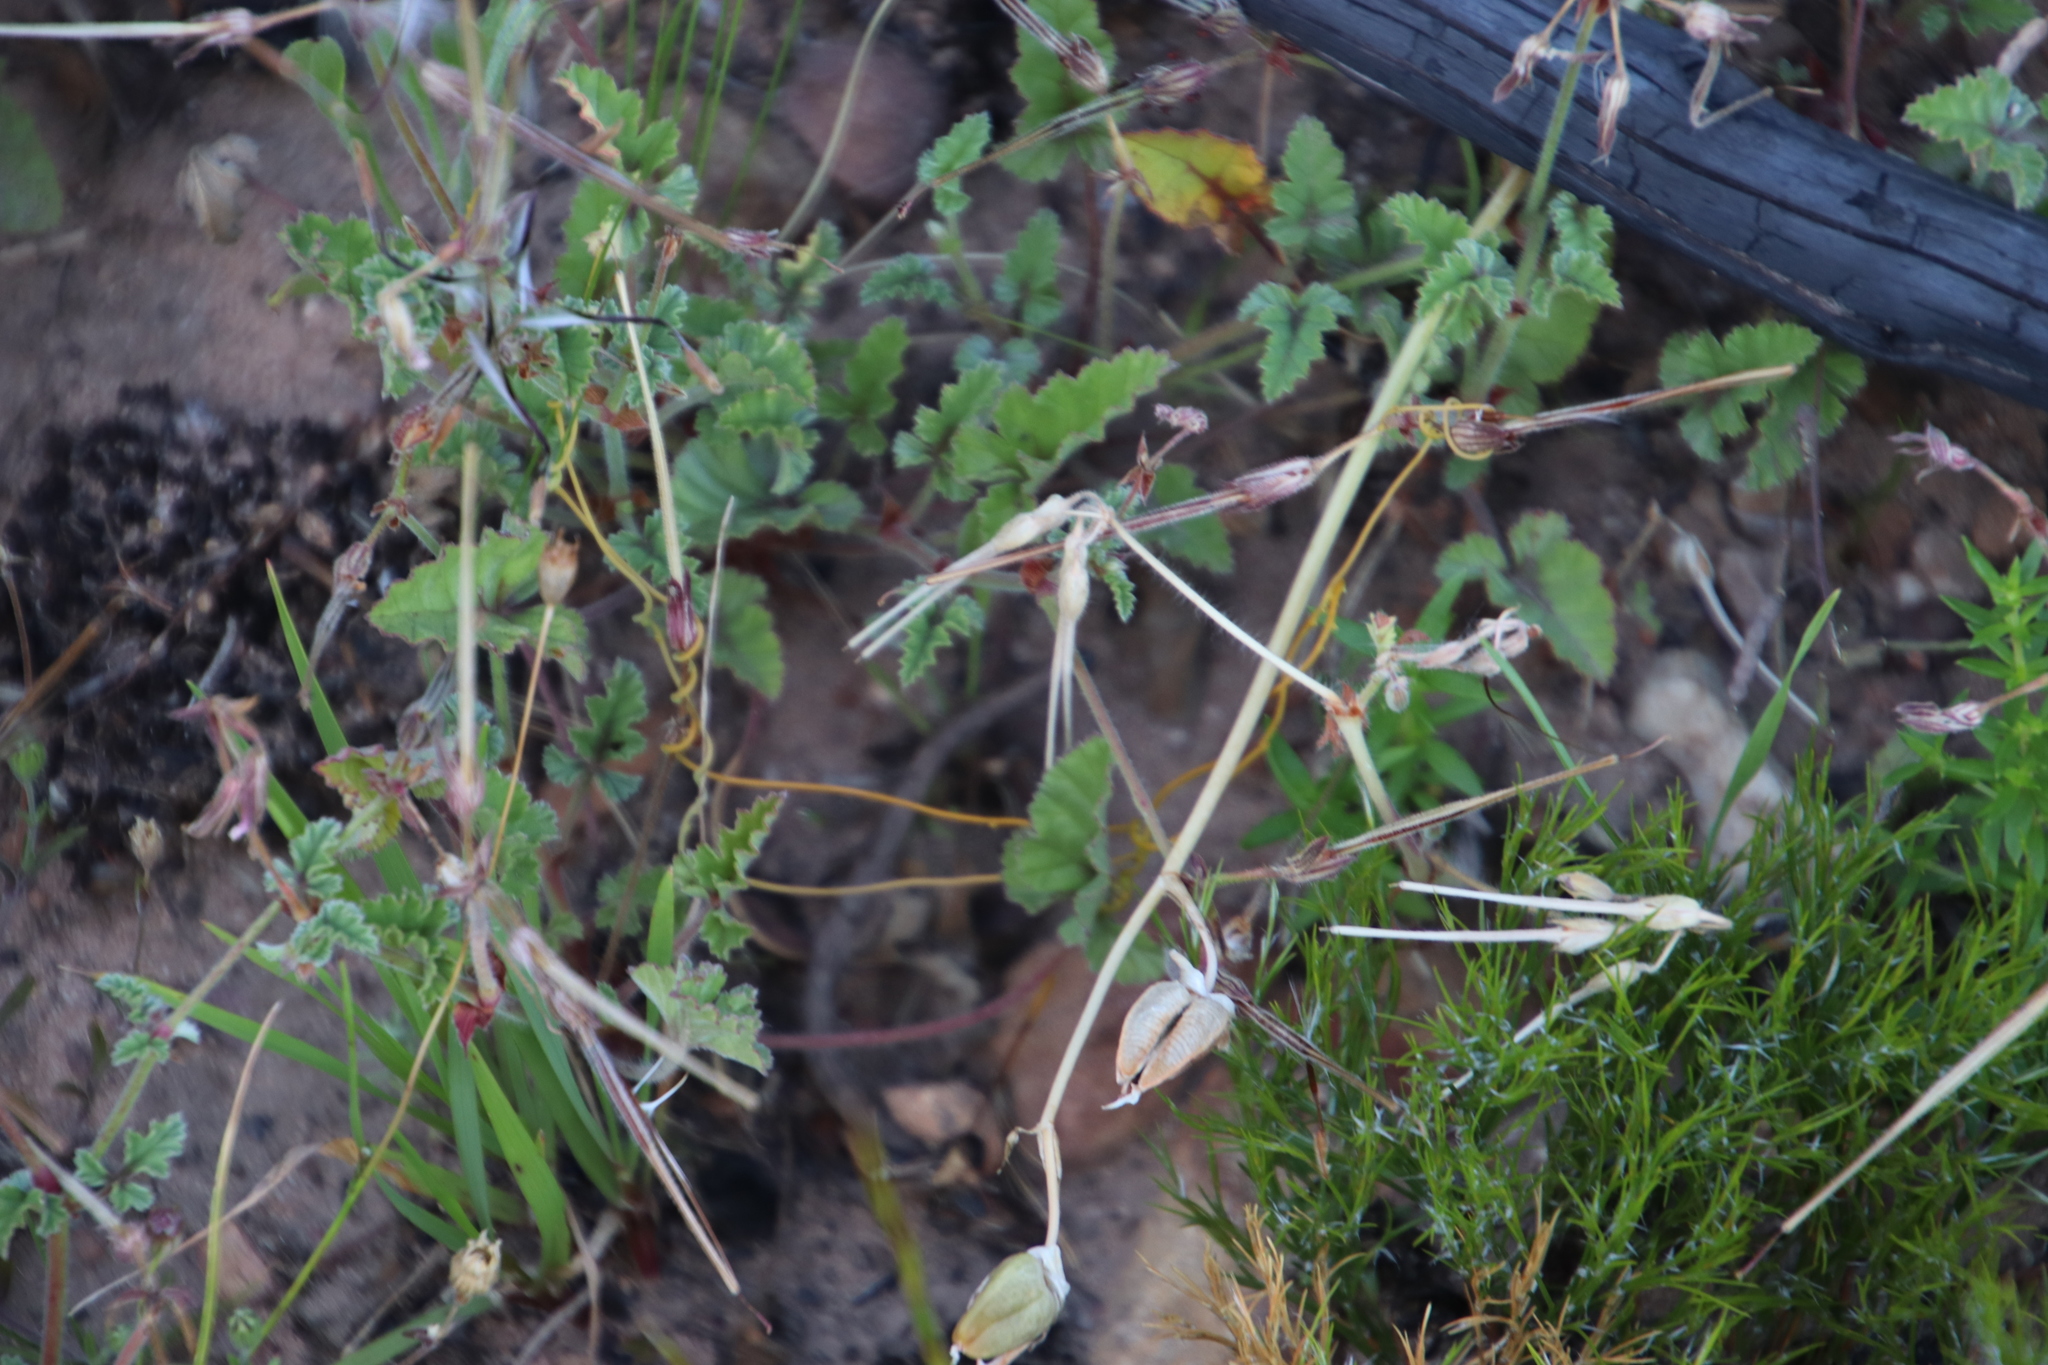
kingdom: Plantae
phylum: Tracheophyta
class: Magnoliopsida
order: Geraniales
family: Geraniaceae
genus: Pelargonium
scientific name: Pelargonium candicans
